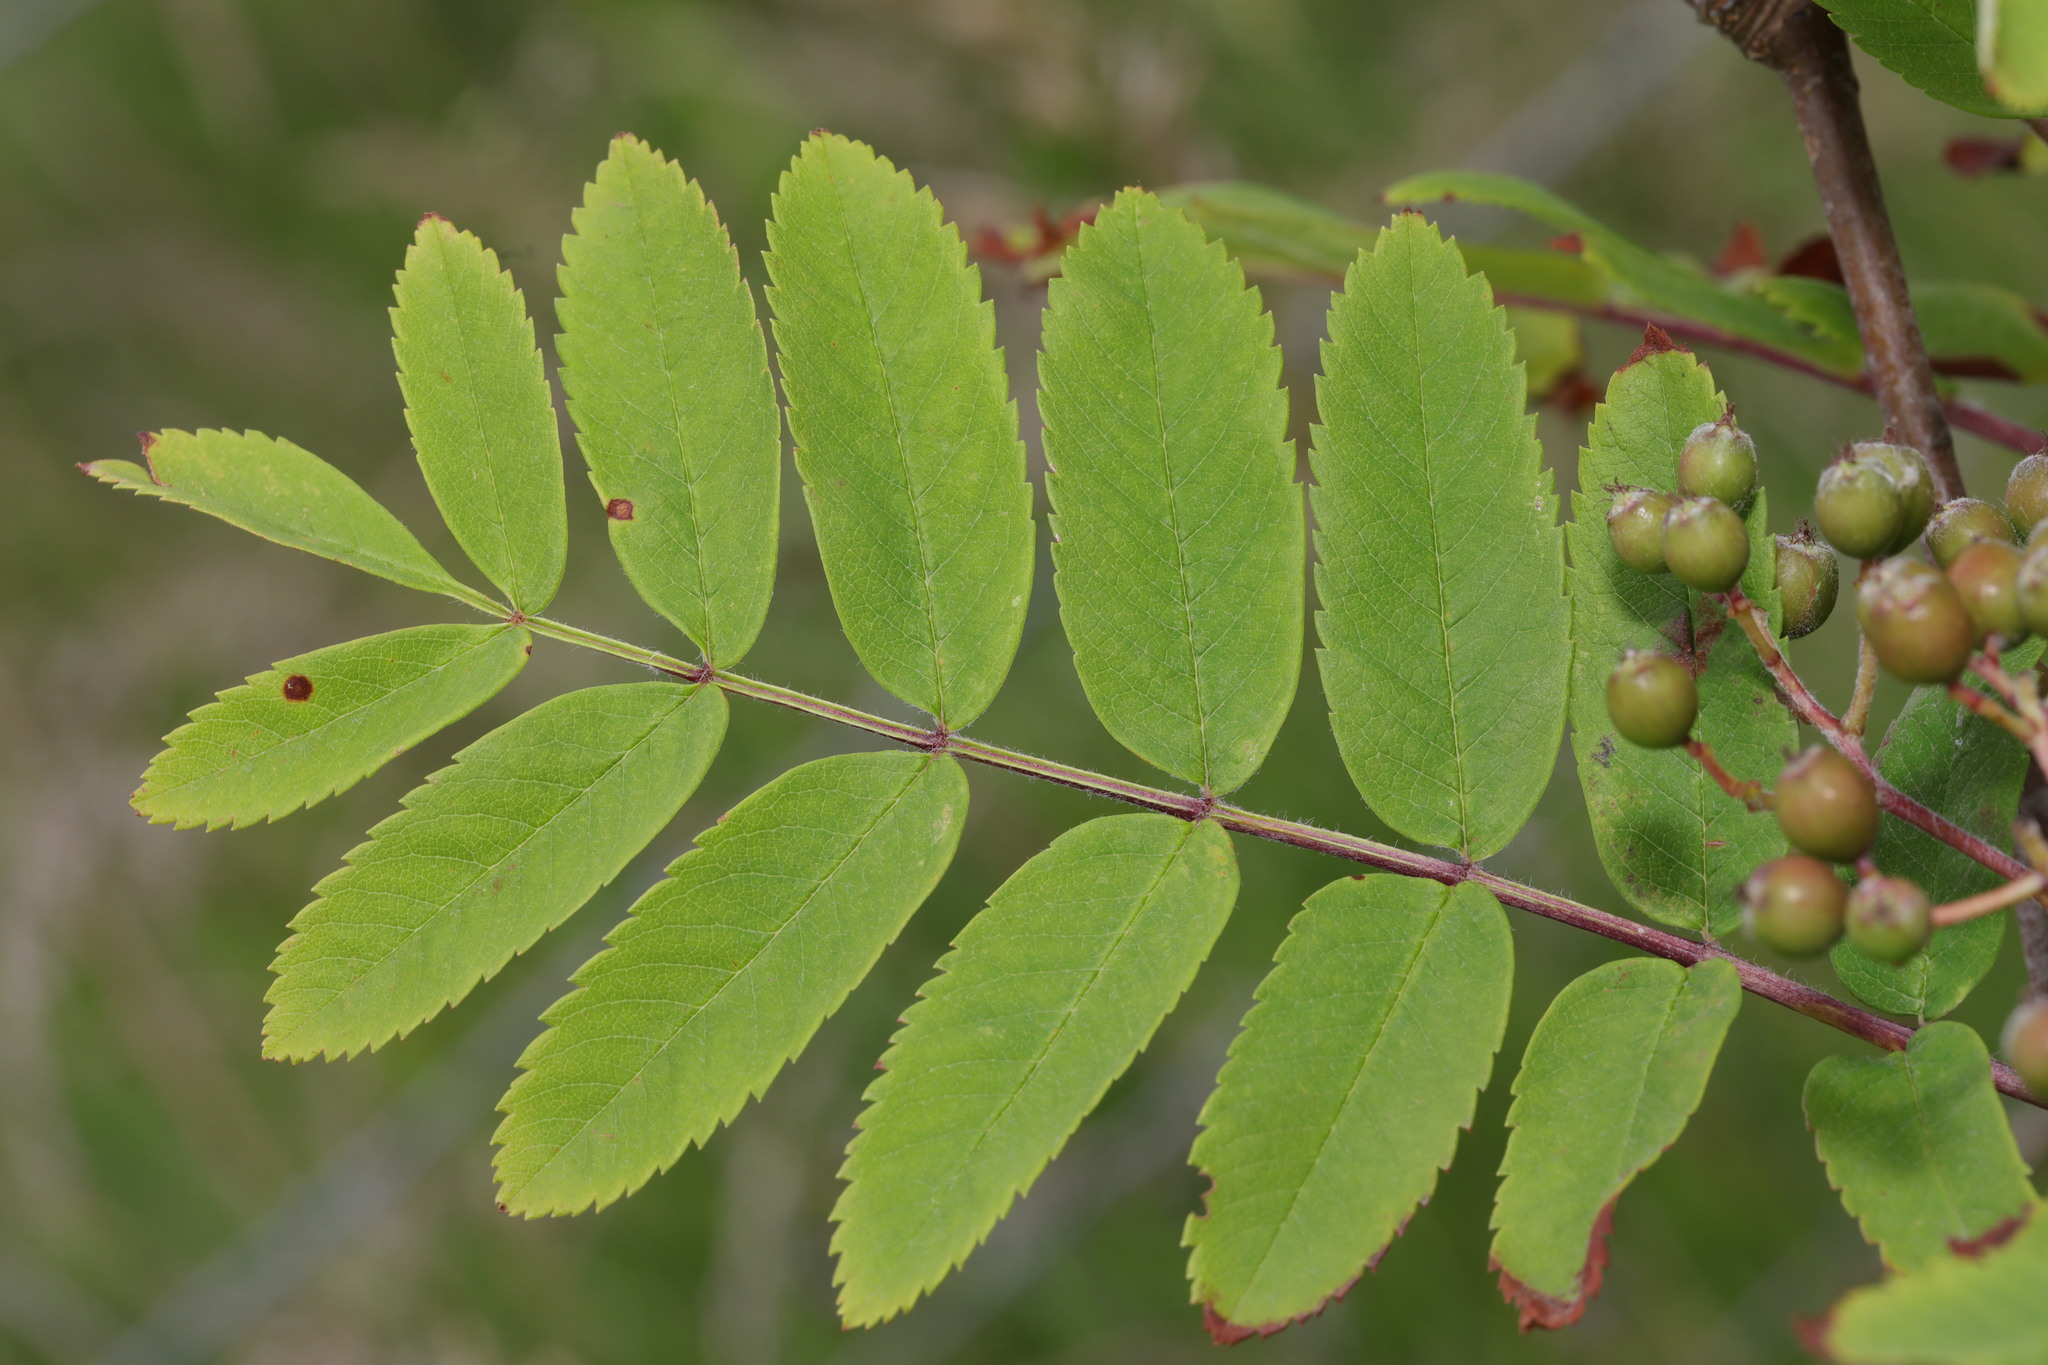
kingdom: Plantae
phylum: Tracheophyta
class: Magnoliopsida
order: Rosales
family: Rosaceae
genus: Sorbus
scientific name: Sorbus aucuparia
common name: Rowan
